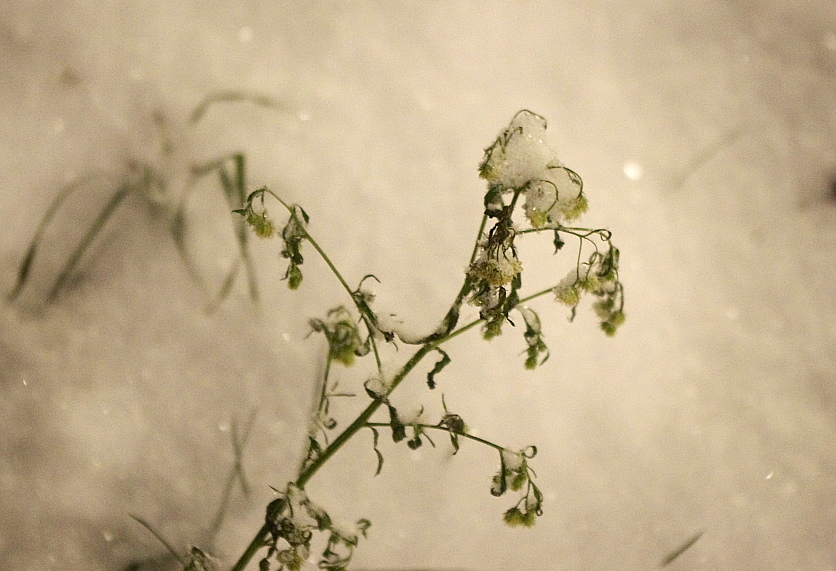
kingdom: Plantae
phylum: Tracheophyta
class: Magnoliopsida
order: Asterales
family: Asteraceae
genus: Erigeron
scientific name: Erigeron canadensis
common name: Canadian fleabane
